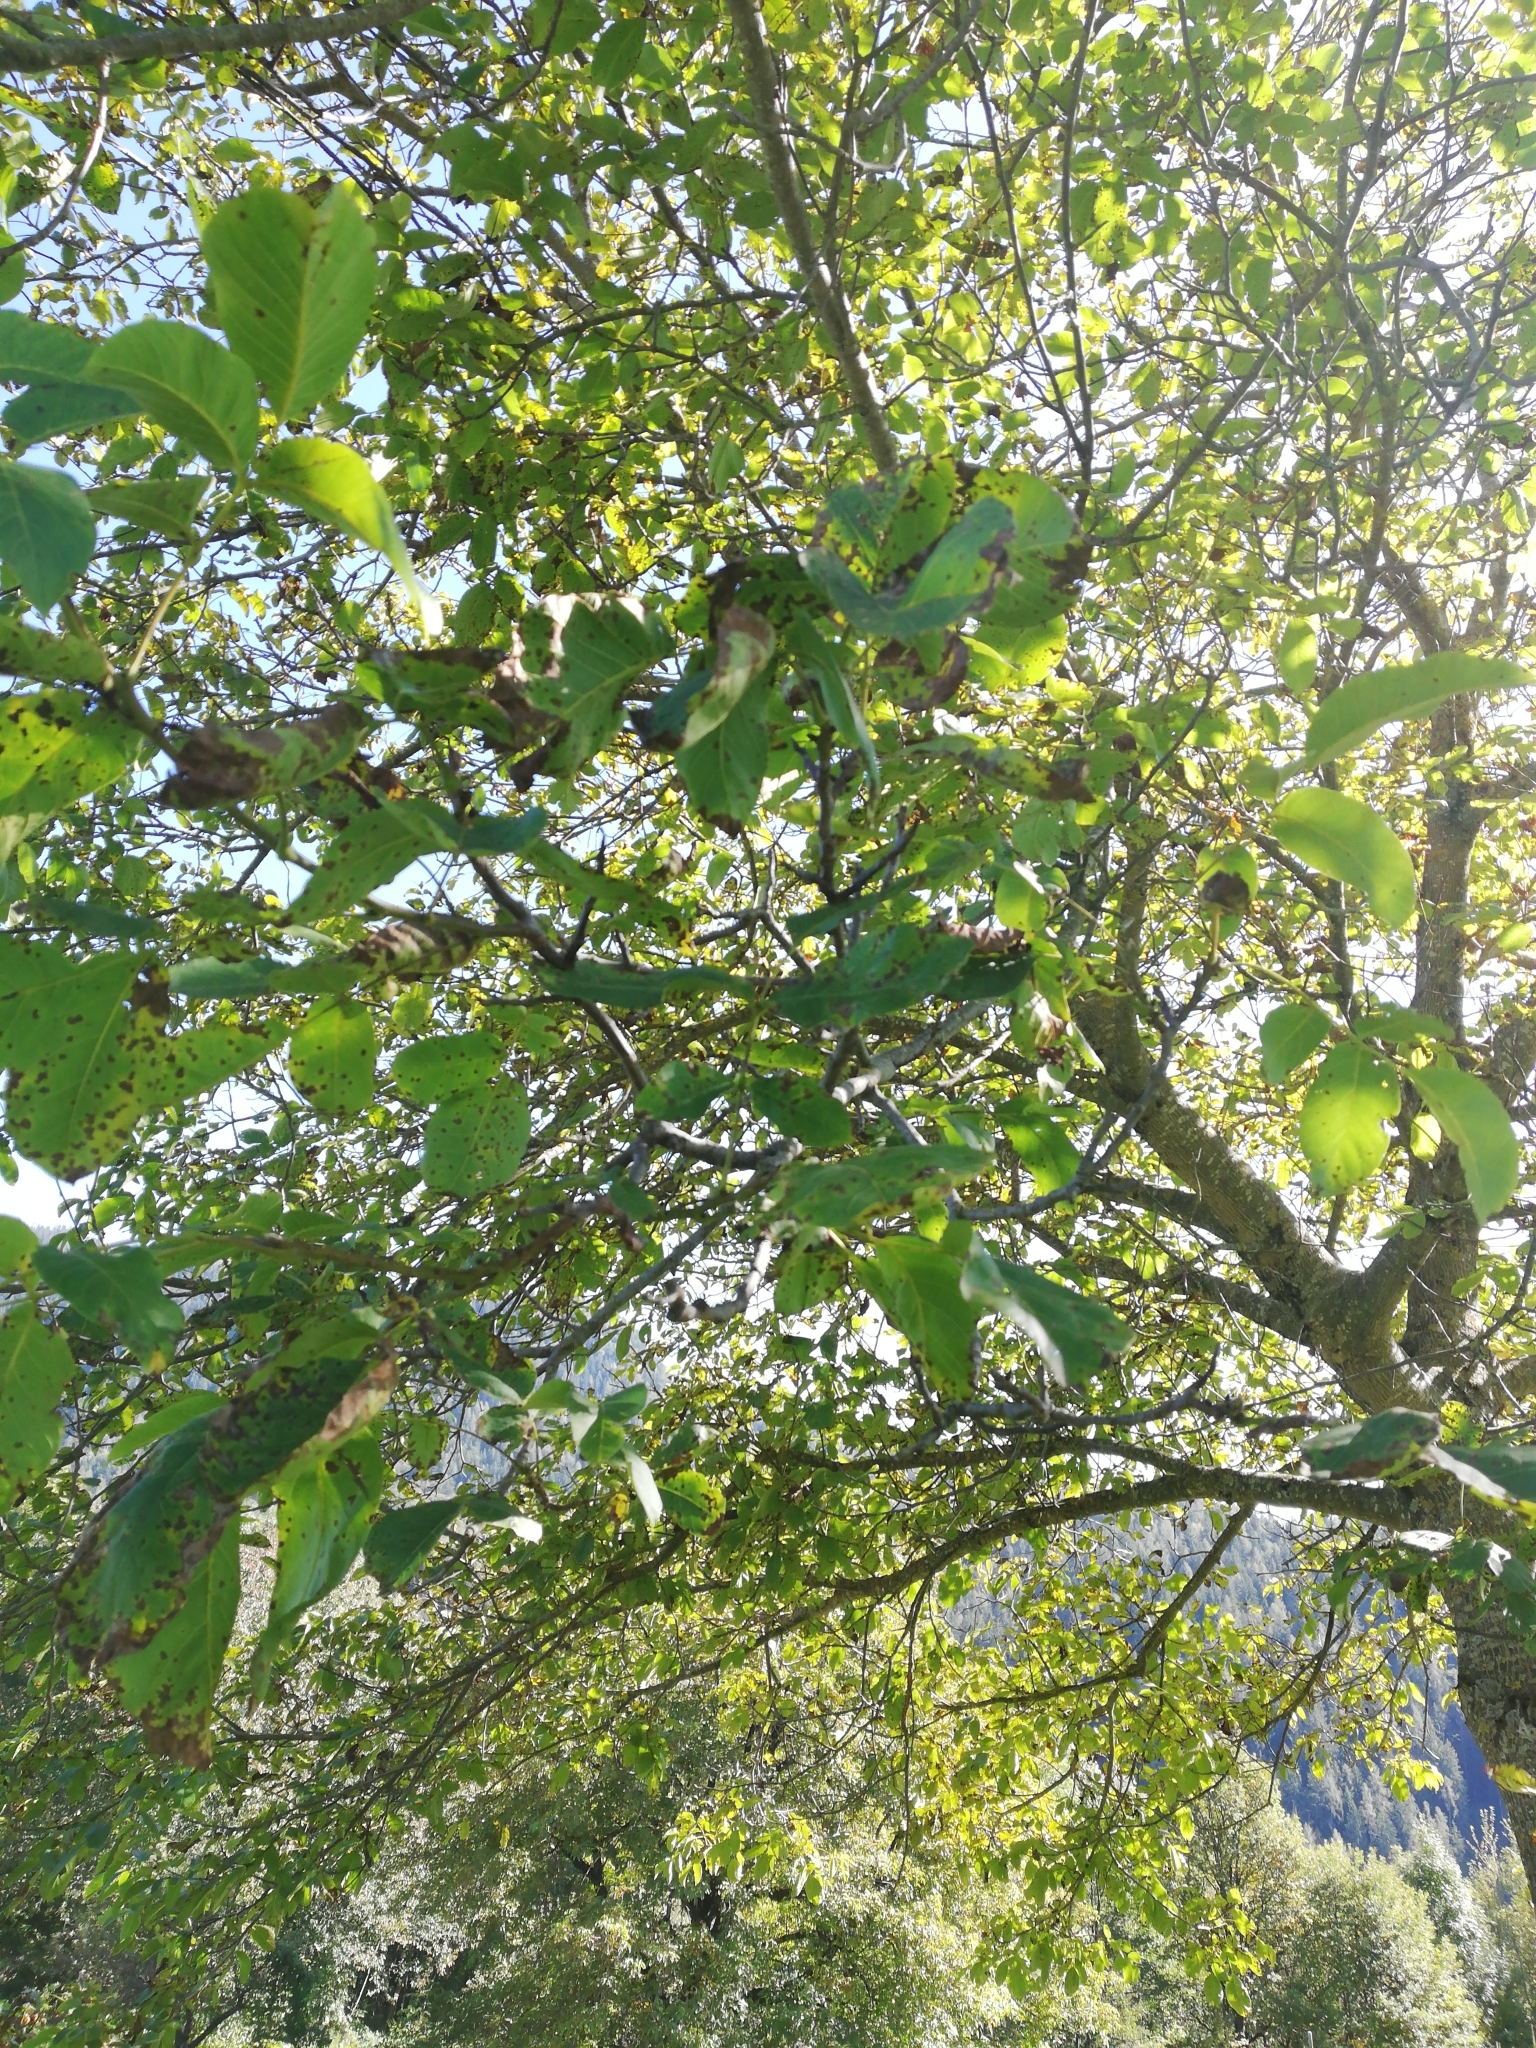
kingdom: Plantae
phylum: Tracheophyta
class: Magnoliopsida
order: Fagales
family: Juglandaceae
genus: Juglans
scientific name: Juglans regia
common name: Walnut
